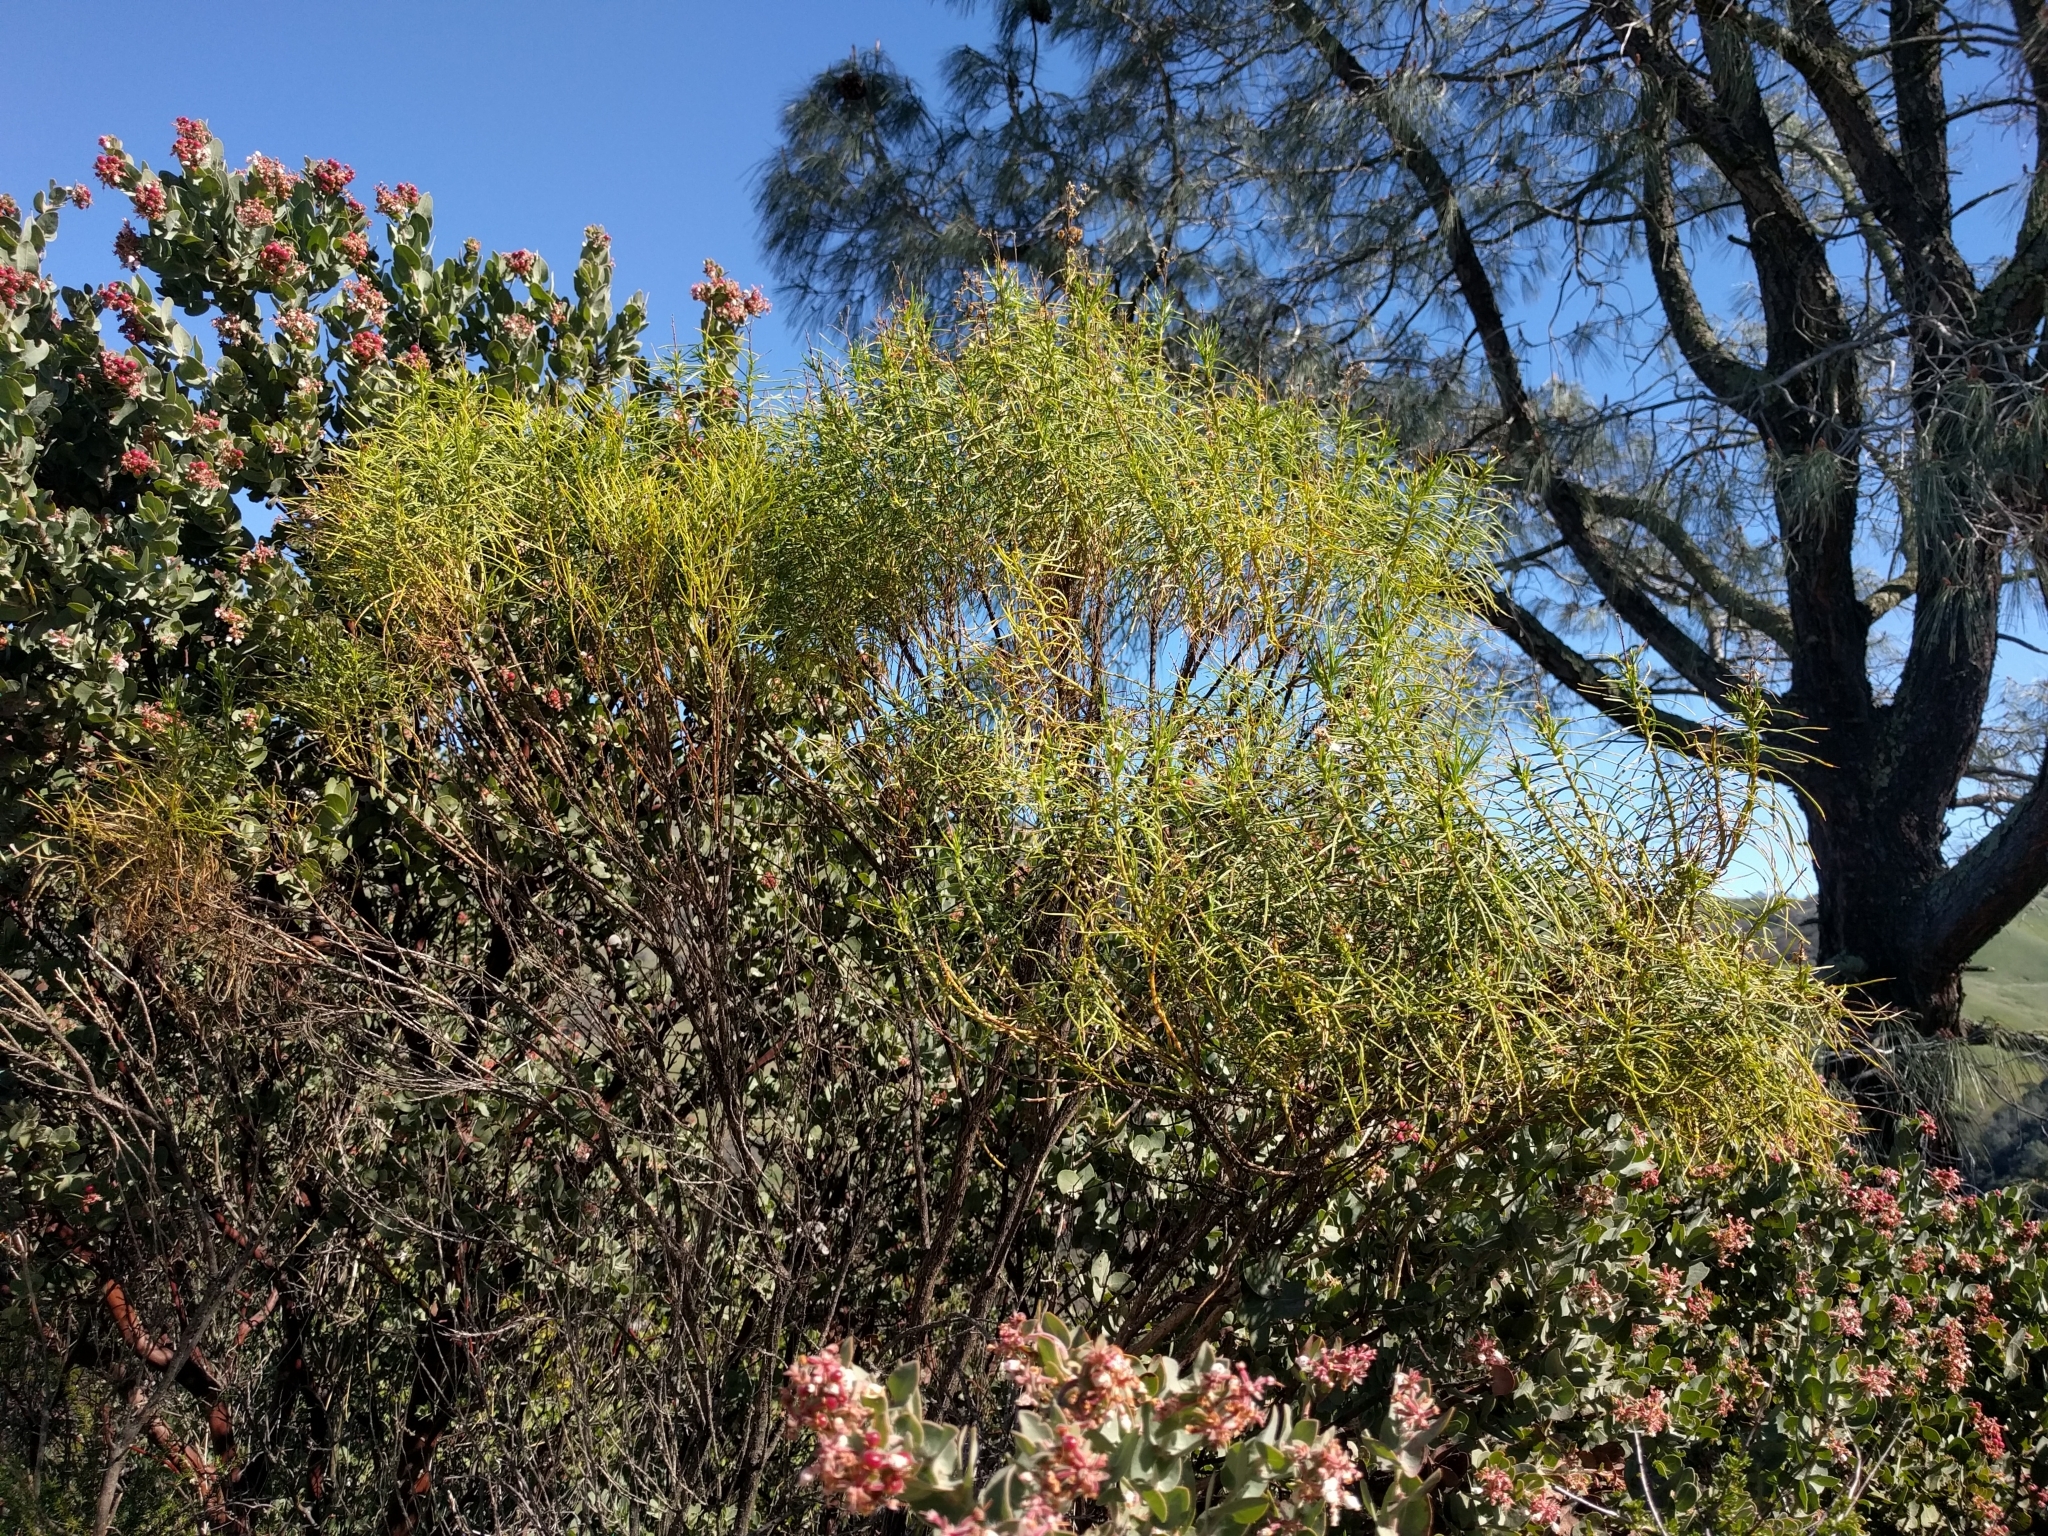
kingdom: Plantae
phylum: Tracheophyta
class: Magnoliopsida
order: Asterales
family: Asteraceae
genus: Ericameria
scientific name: Ericameria arborescens
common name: Goldenfleece
